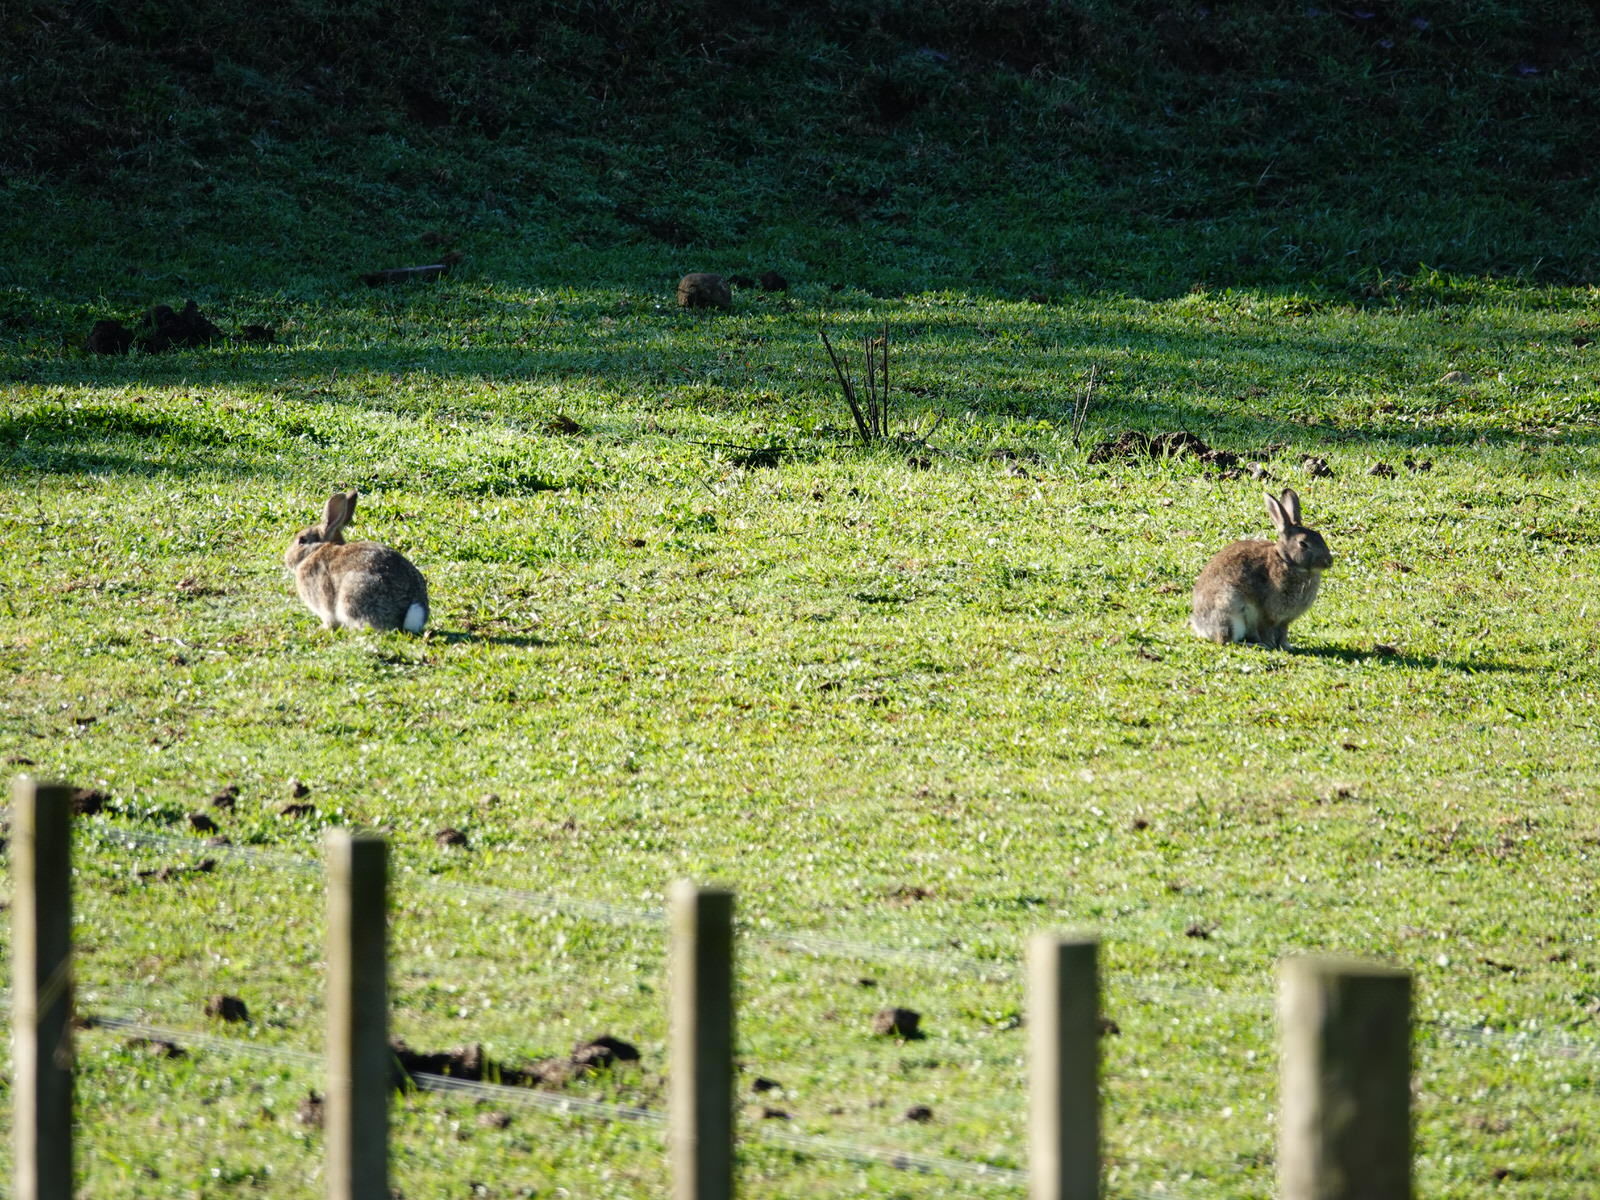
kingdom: Animalia
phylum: Chordata
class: Mammalia
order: Lagomorpha
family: Leporidae
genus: Oryctolagus
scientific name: Oryctolagus cuniculus
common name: European rabbit
